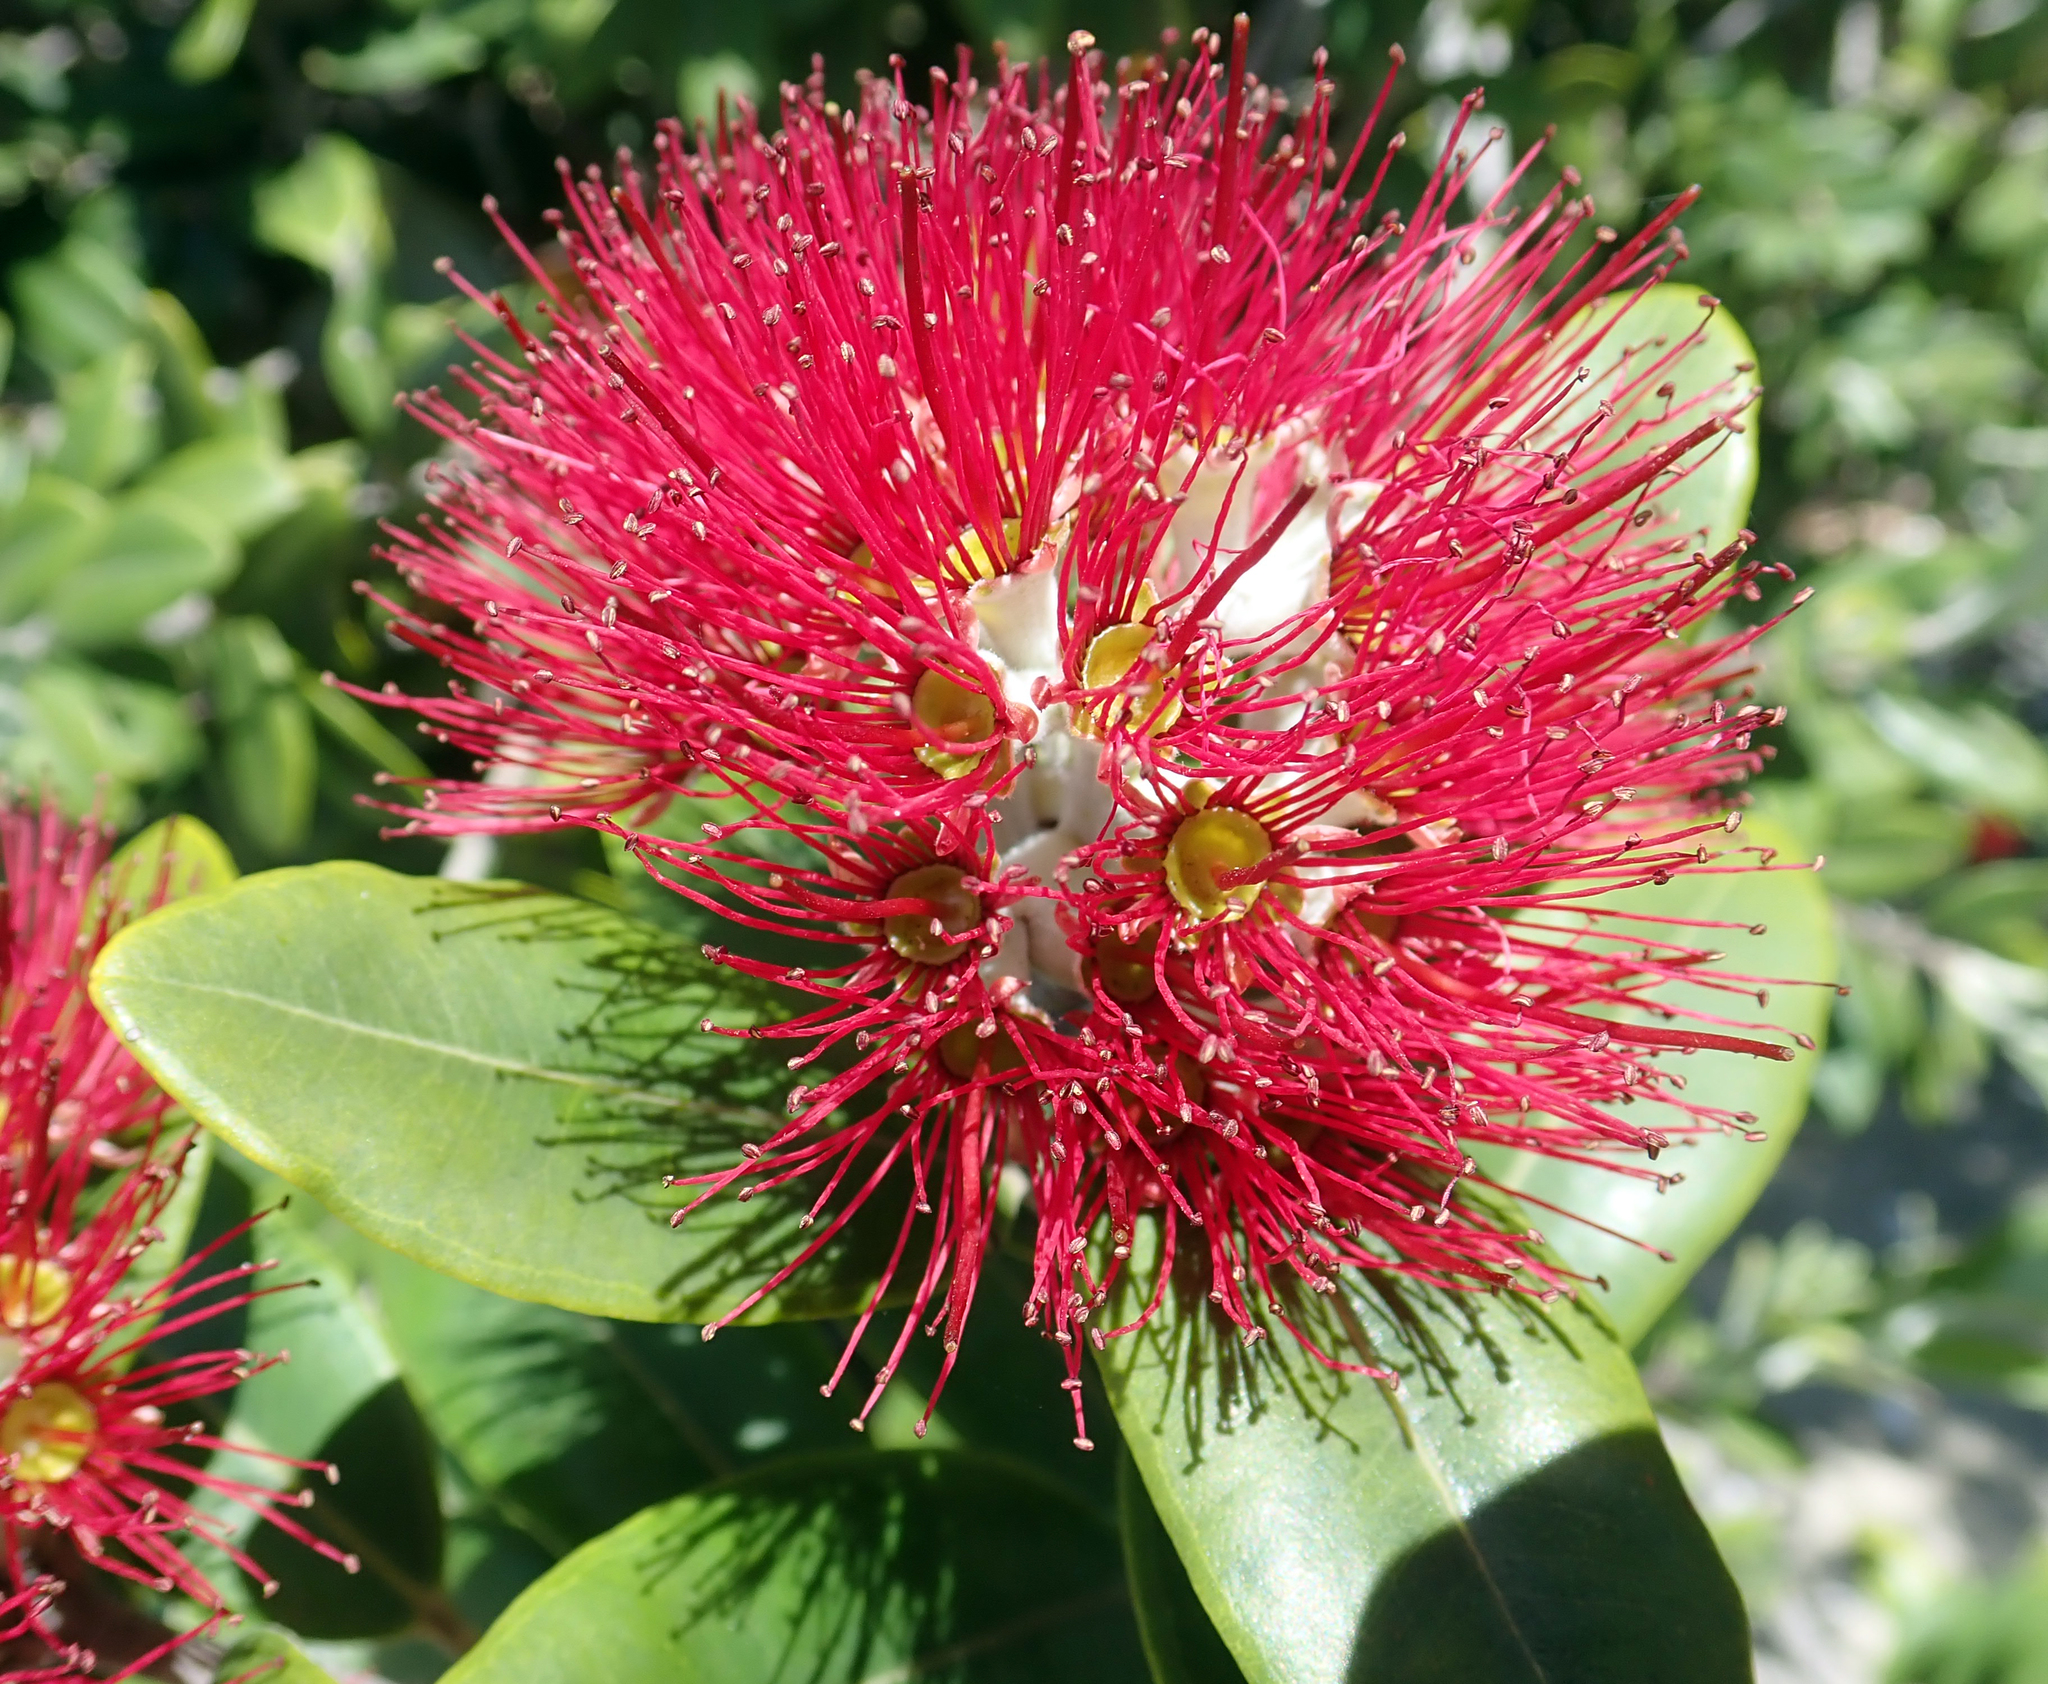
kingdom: Plantae
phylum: Tracheophyta
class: Magnoliopsida
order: Myrtales
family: Myrtaceae
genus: Metrosideros
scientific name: Metrosideros excelsa
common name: New zealand christmastree
